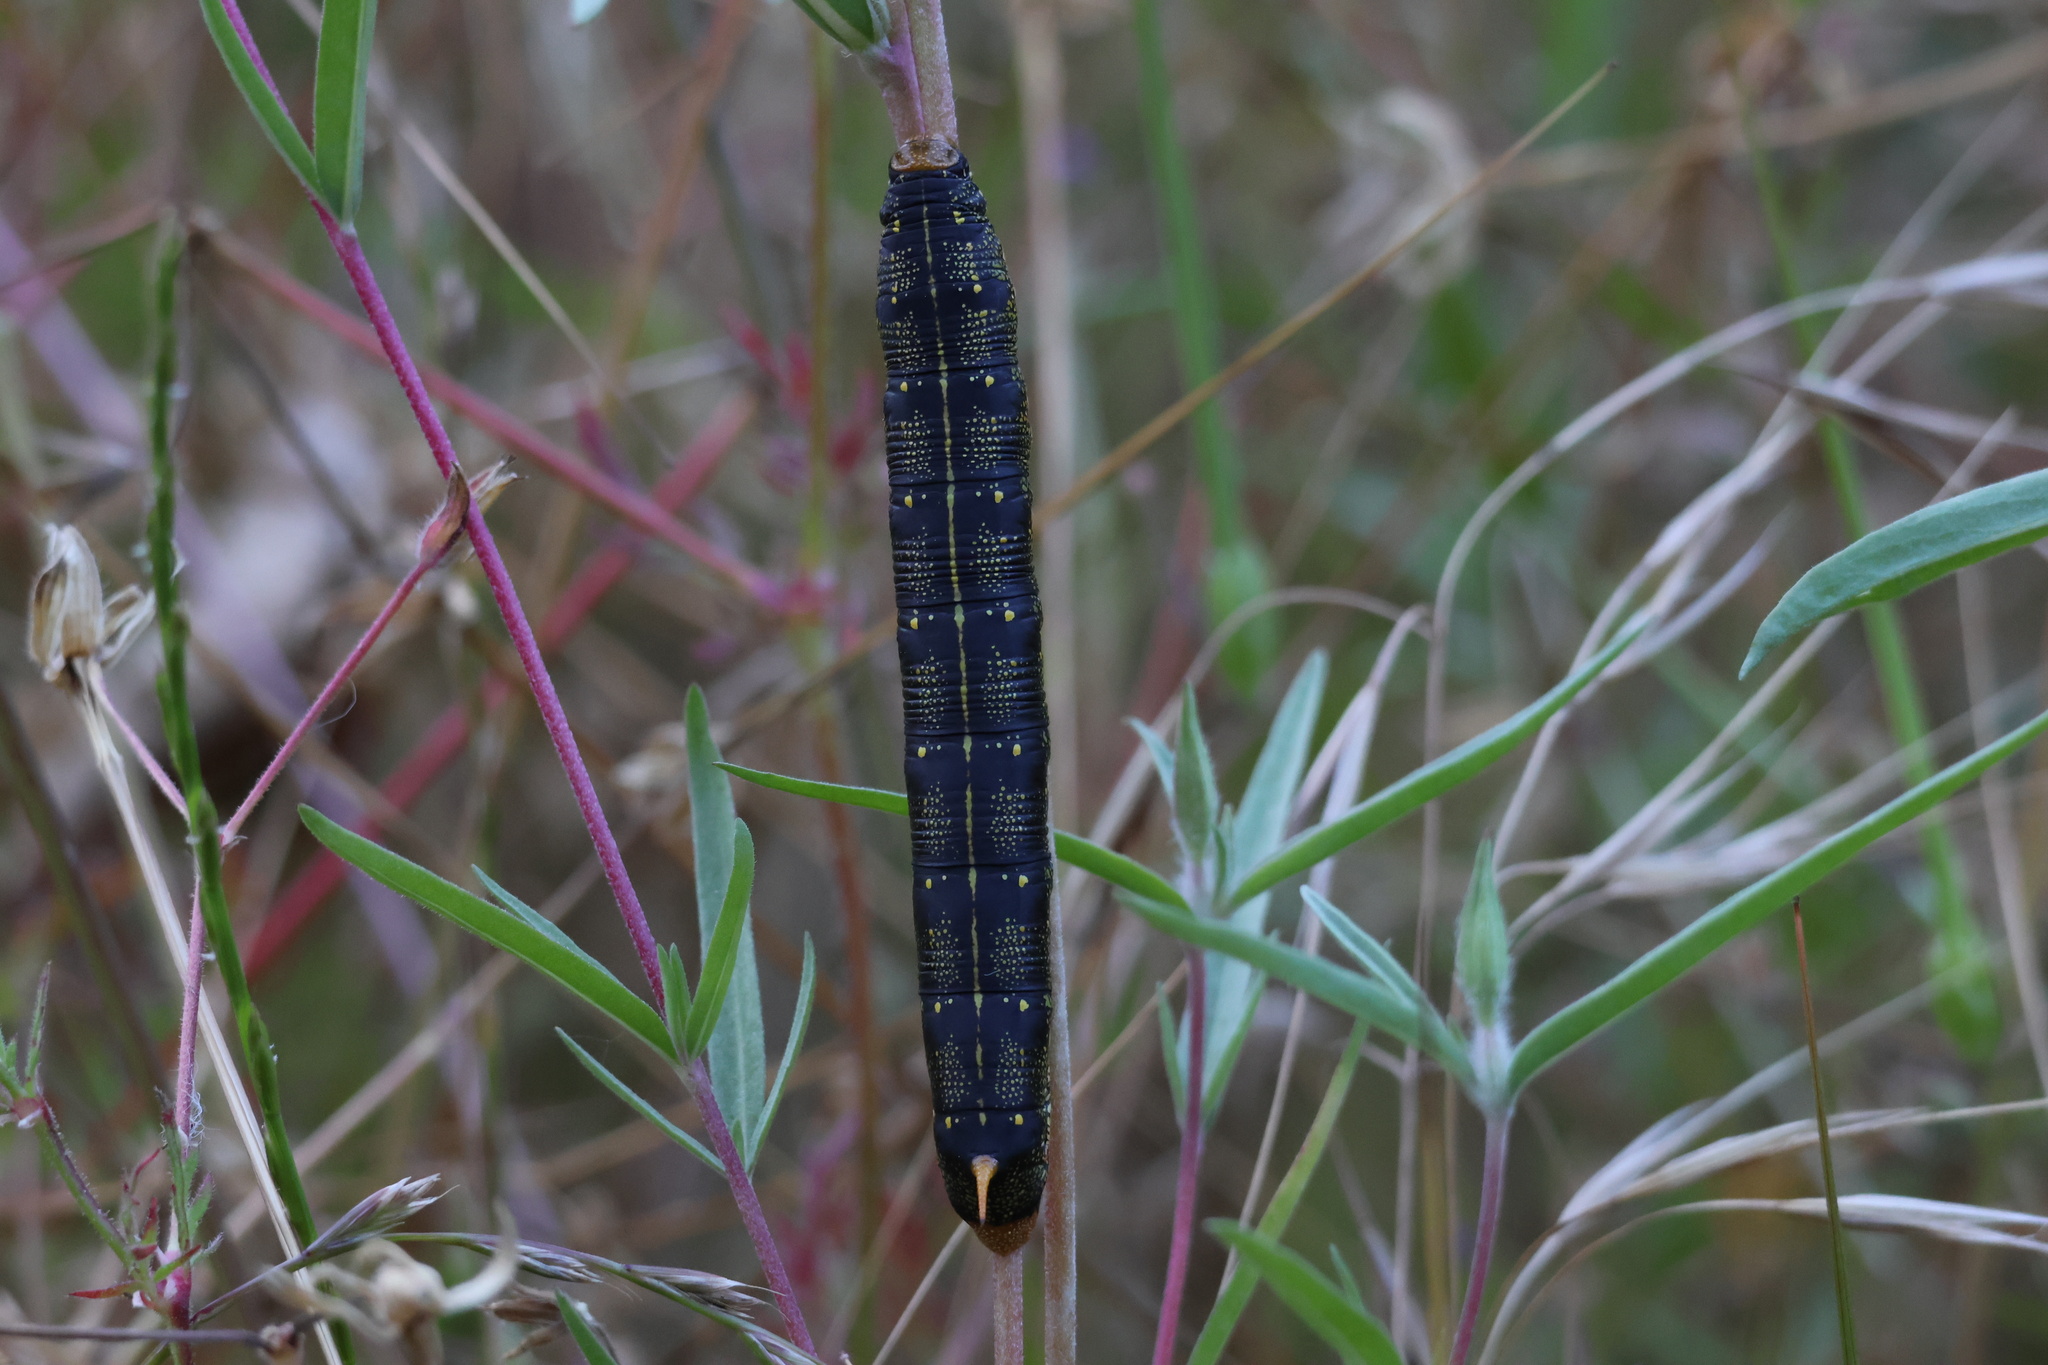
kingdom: Animalia
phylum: Arthropoda
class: Insecta
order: Lepidoptera
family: Sphingidae
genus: Hyles
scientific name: Hyles lineata
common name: White-lined sphinx
